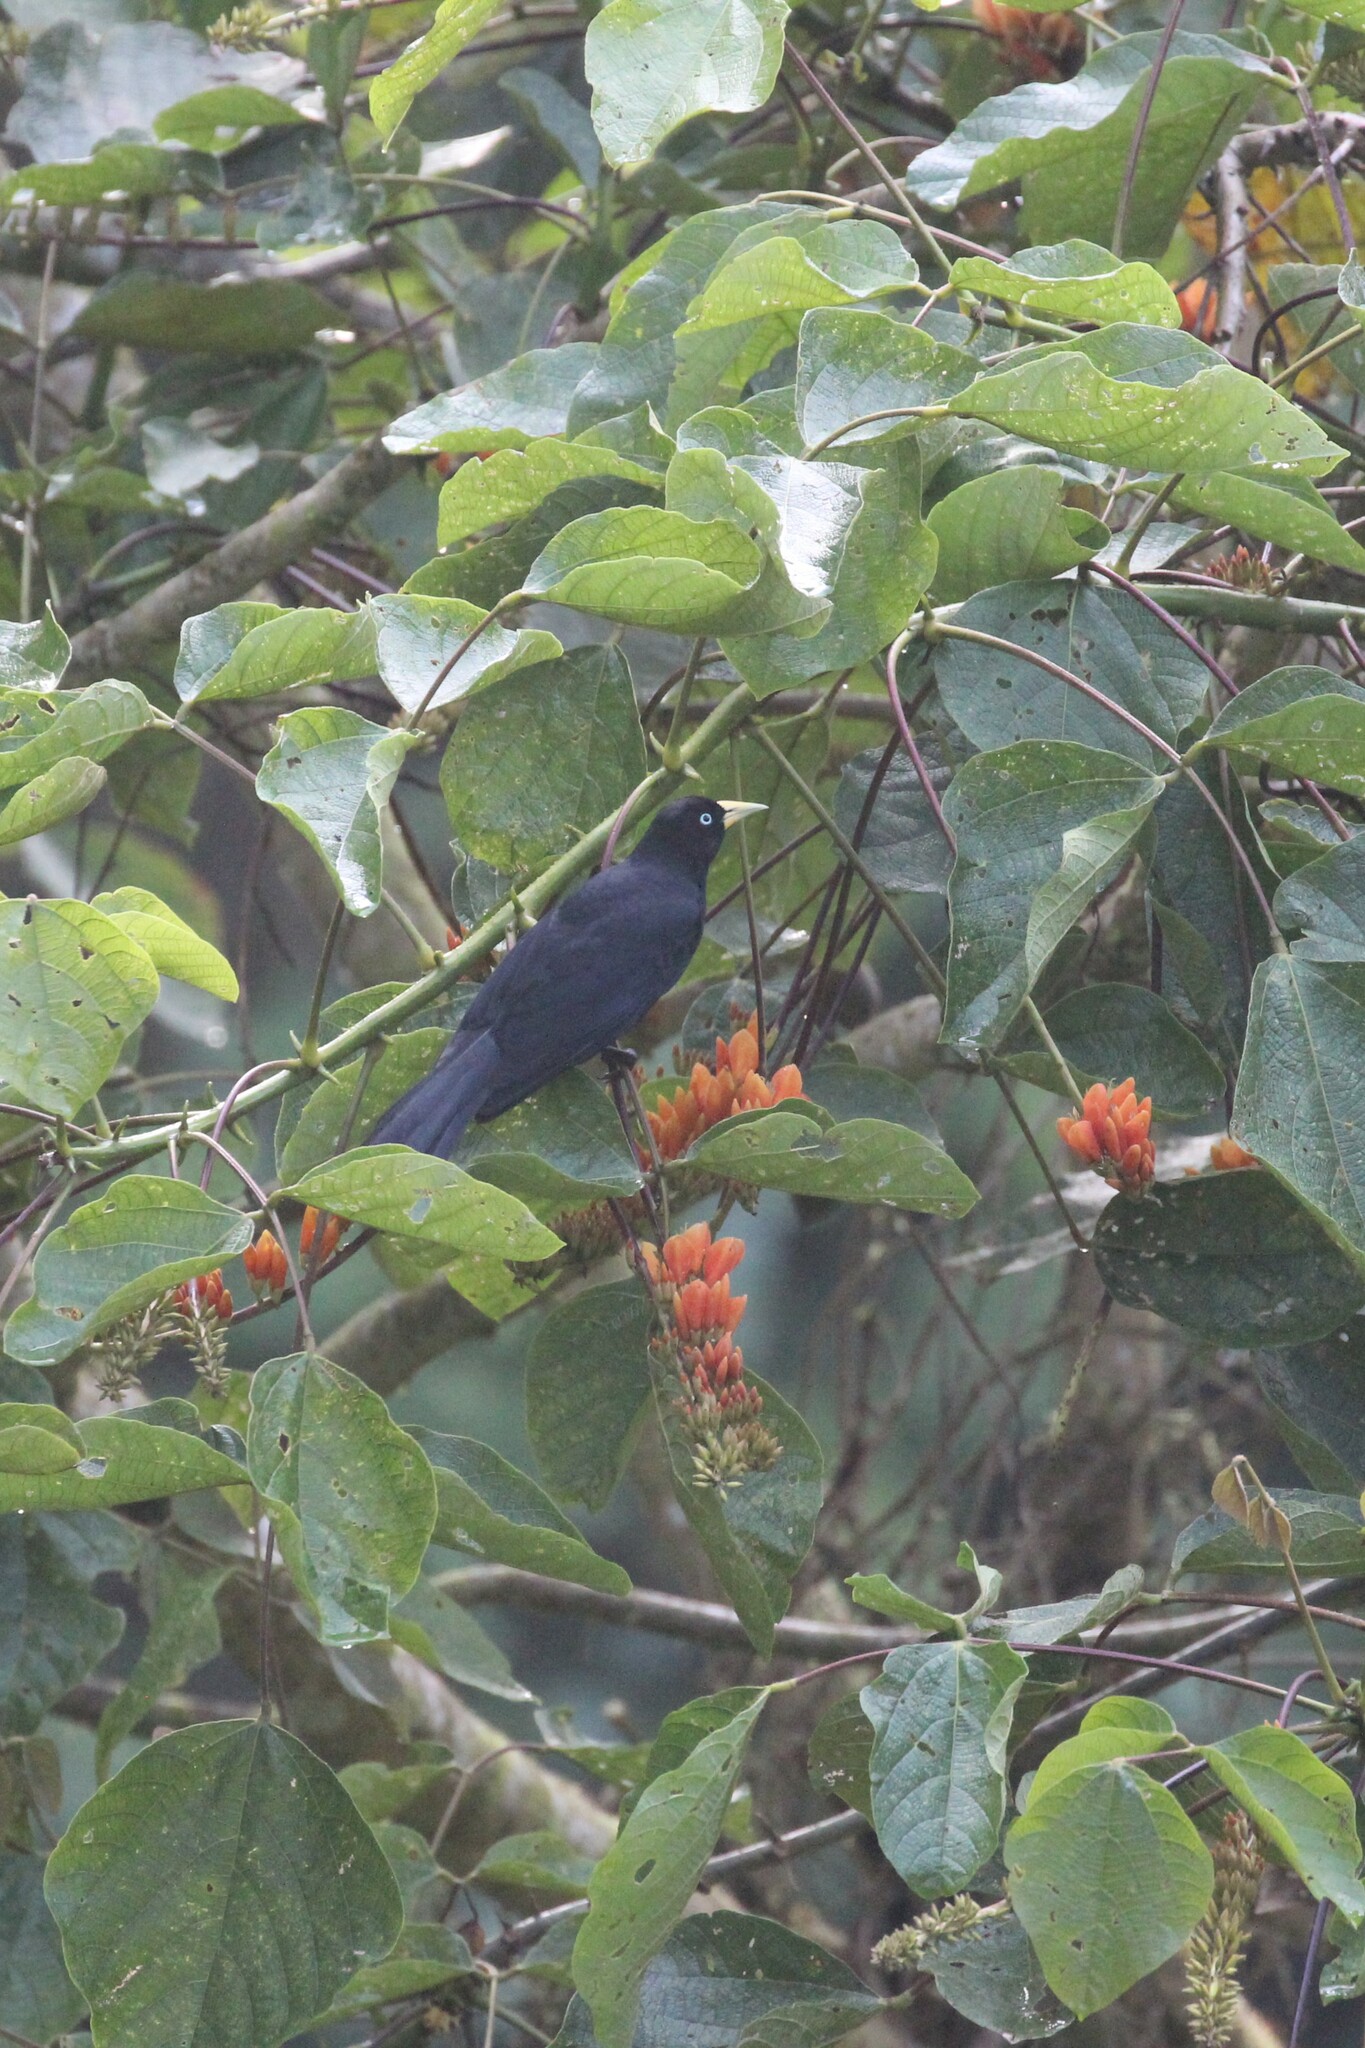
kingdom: Animalia
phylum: Chordata
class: Aves
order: Passeriformes
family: Icteridae
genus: Cacicus
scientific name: Cacicus uropygialis
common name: Scarlet-rumped cacique
